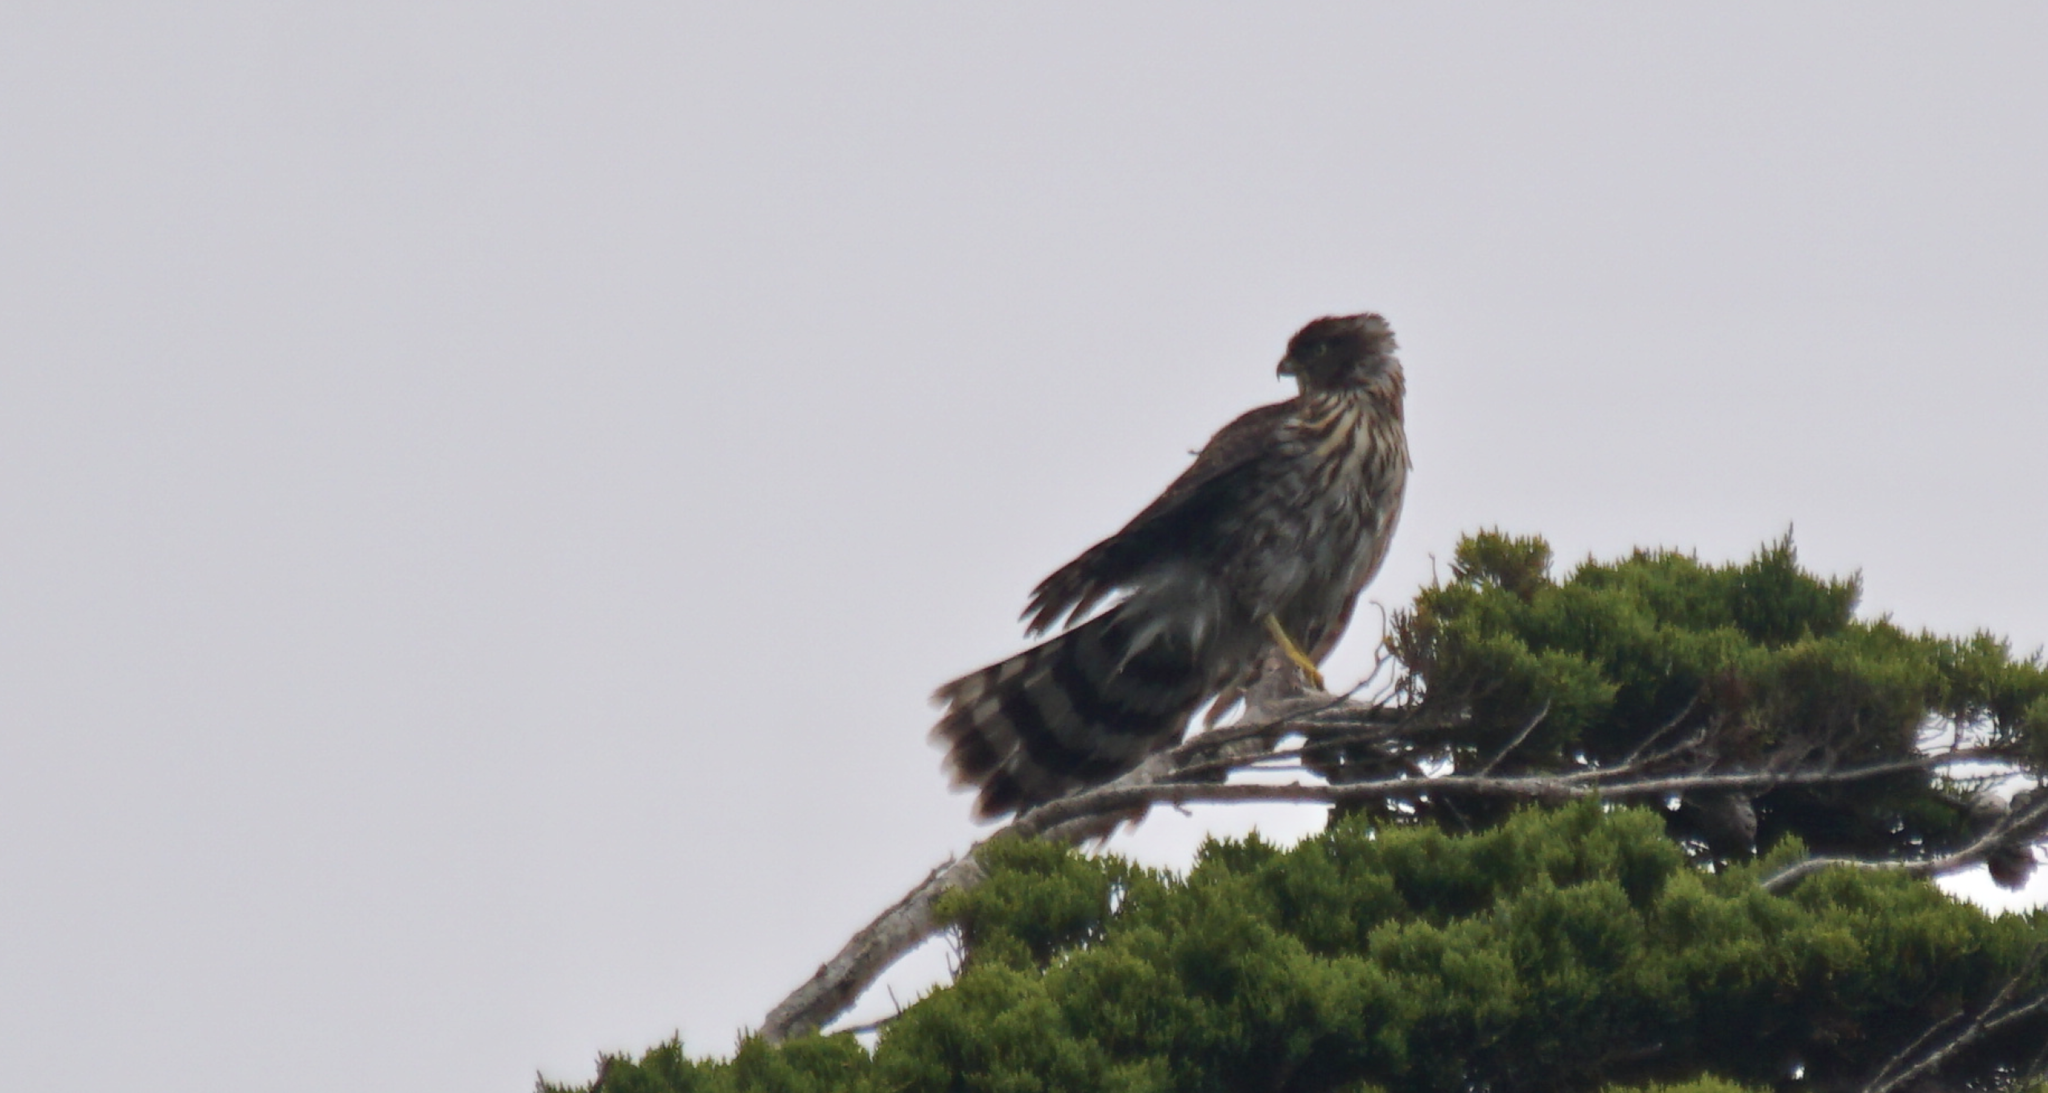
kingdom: Animalia
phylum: Chordata
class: Aves
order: Accipitriformes
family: Accipitridae
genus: Accipiter
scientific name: Accipiter cooperii
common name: Cooper's hawk
